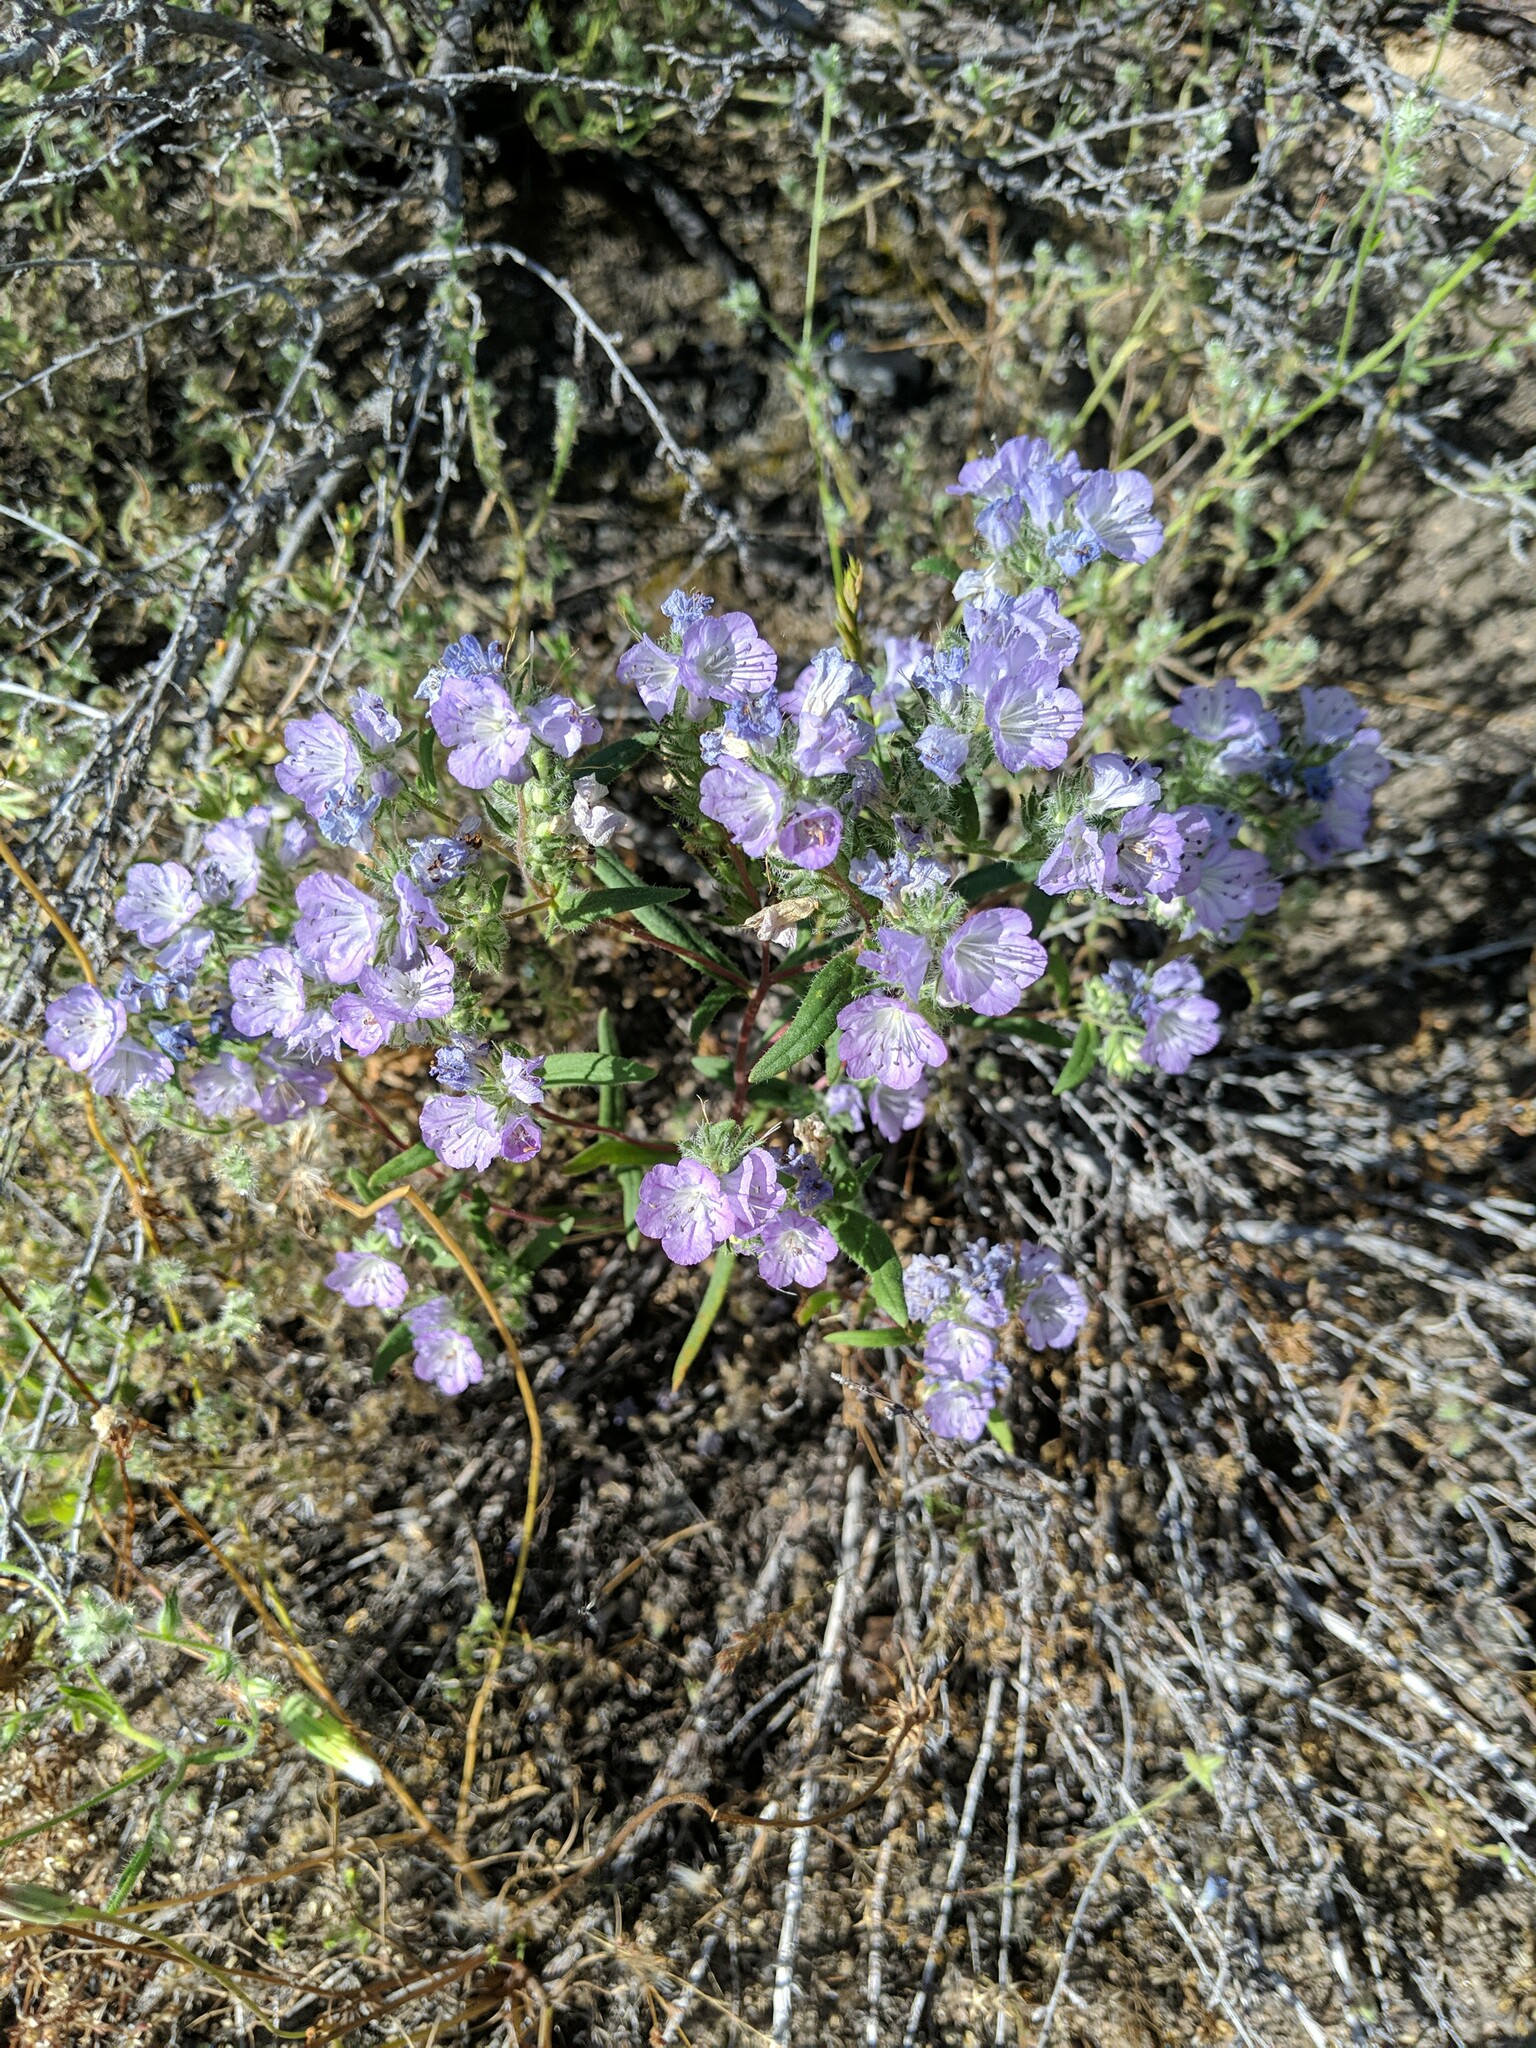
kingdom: Plantae
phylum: Tracheophyta
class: Magnoliopsida
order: Boraginales
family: Hydrophyllaceae
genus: Phacelia
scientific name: Phacelia linearis
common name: Linear-leaved phacelia
